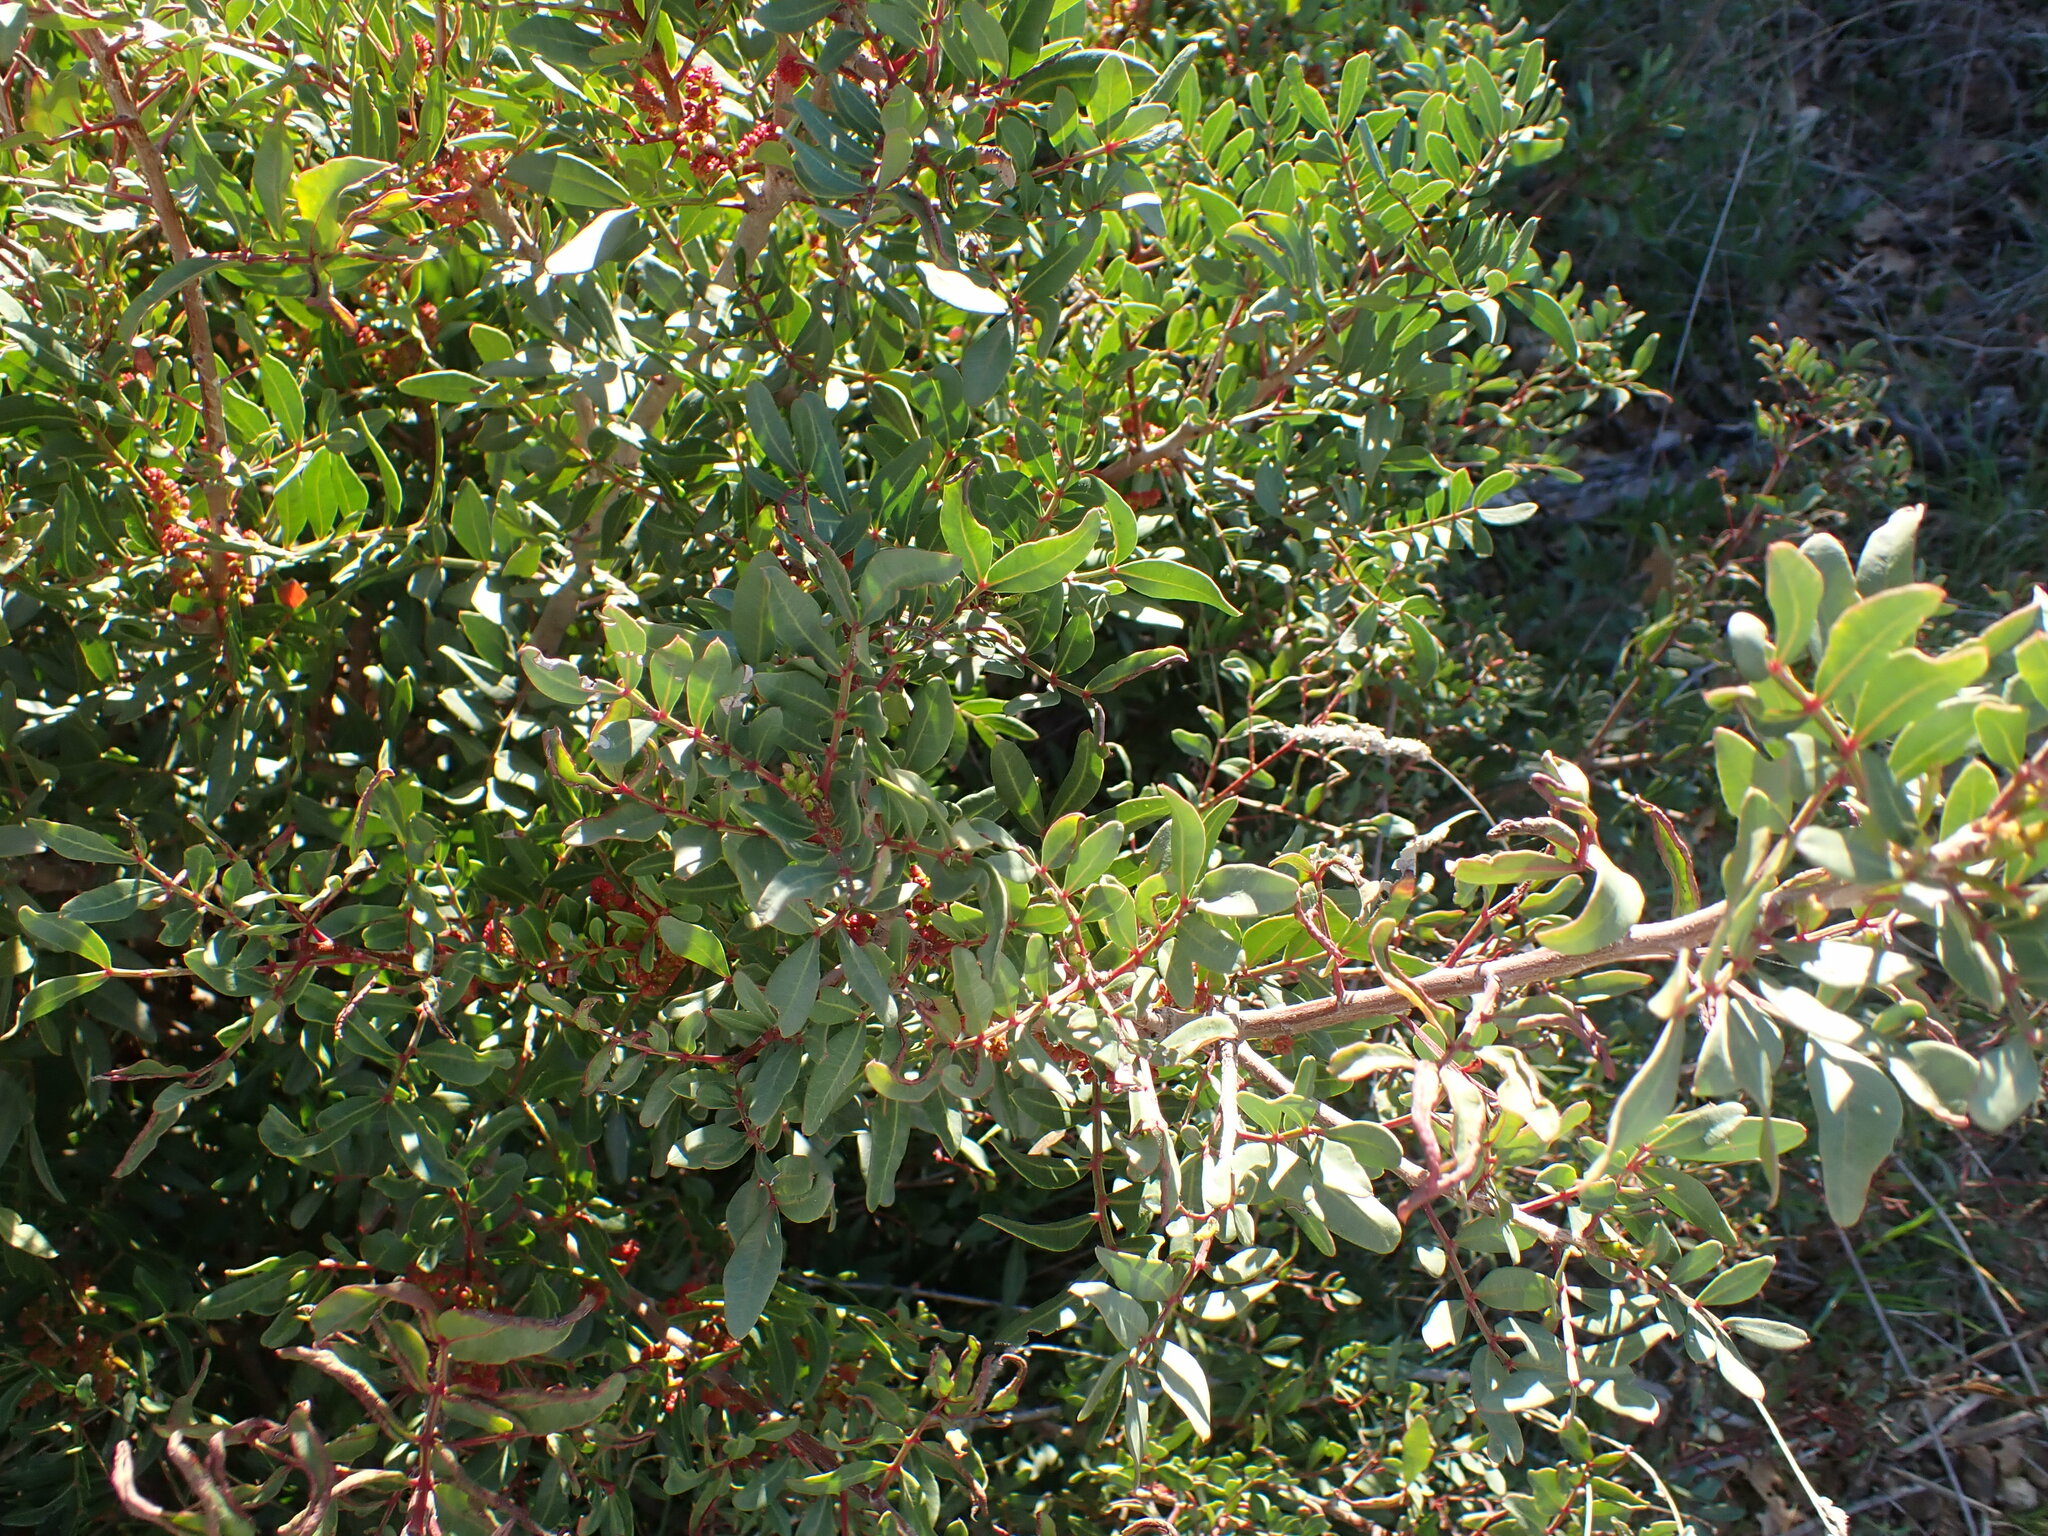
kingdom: Plantae
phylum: Tracheophyta
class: Magnoliopsida
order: Sapindales
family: Anacardiaceae
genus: Pistacia
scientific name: Pistacia lentiscus
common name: Lentisk
